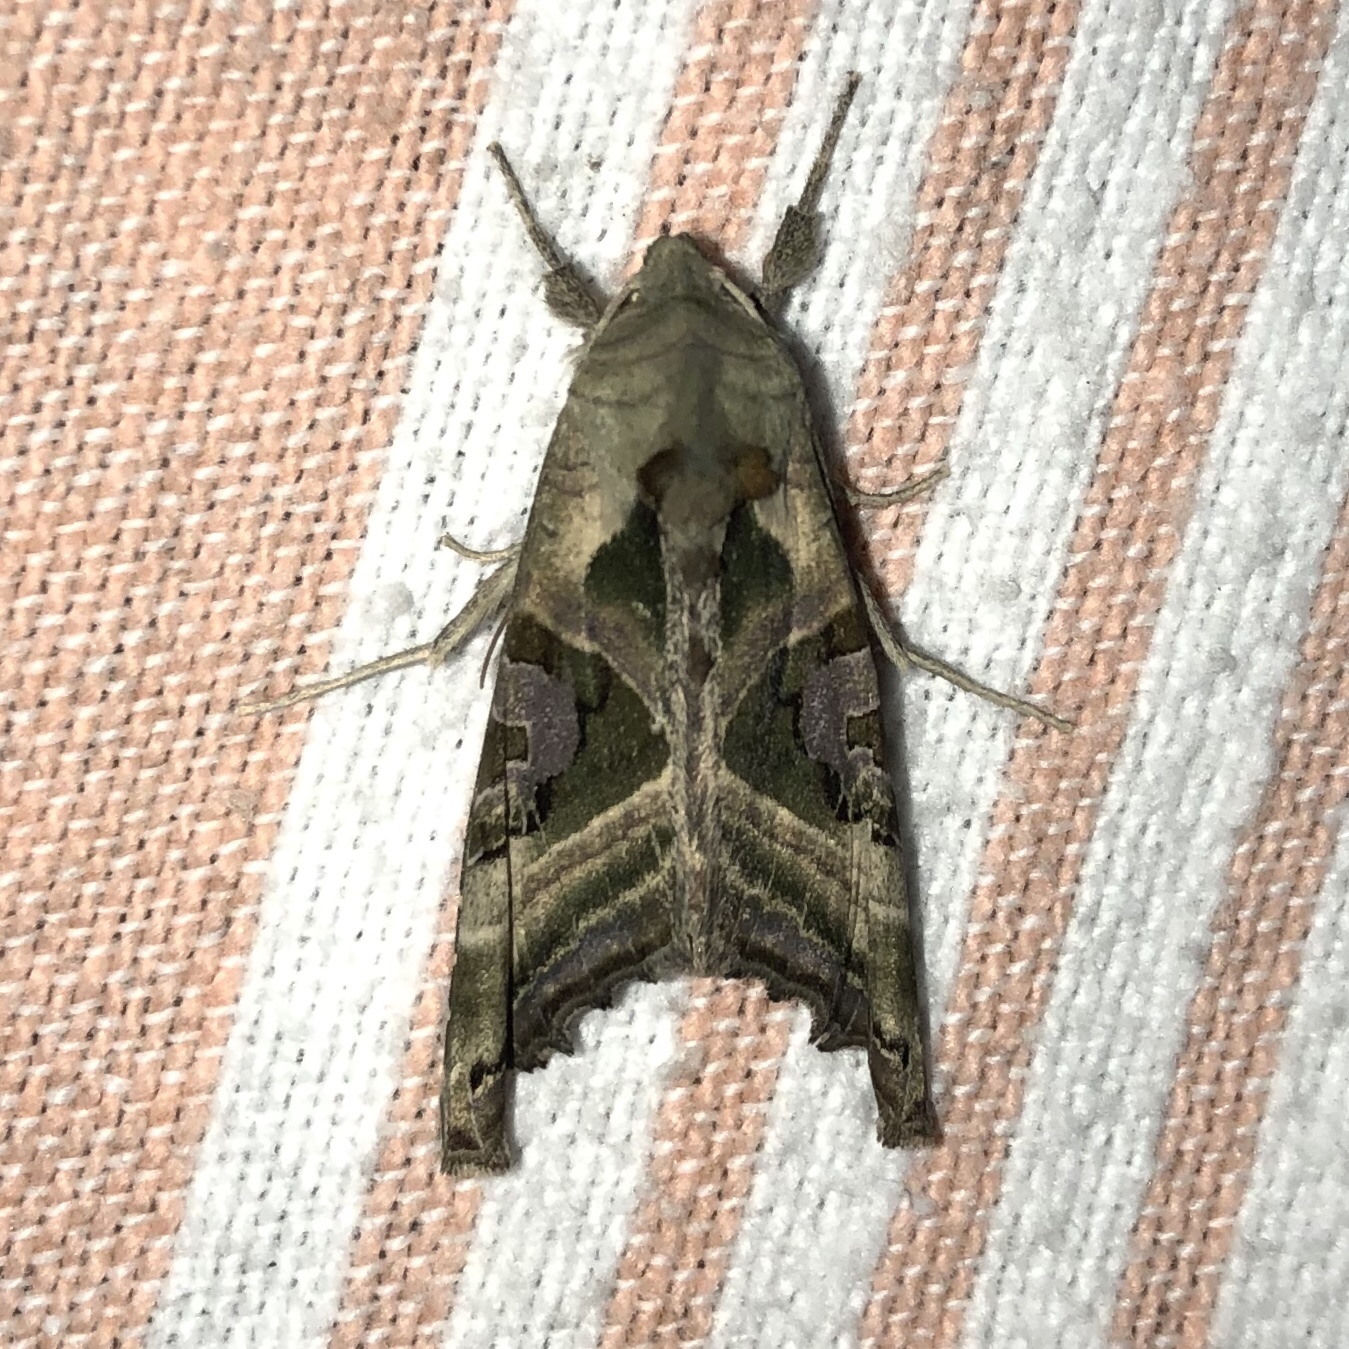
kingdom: Animalia
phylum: Arthropoda
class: Insecta
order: Lepidoptera
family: Noctuidae
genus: Phlogophora
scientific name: Phlogophora iris
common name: Olive angle shades
